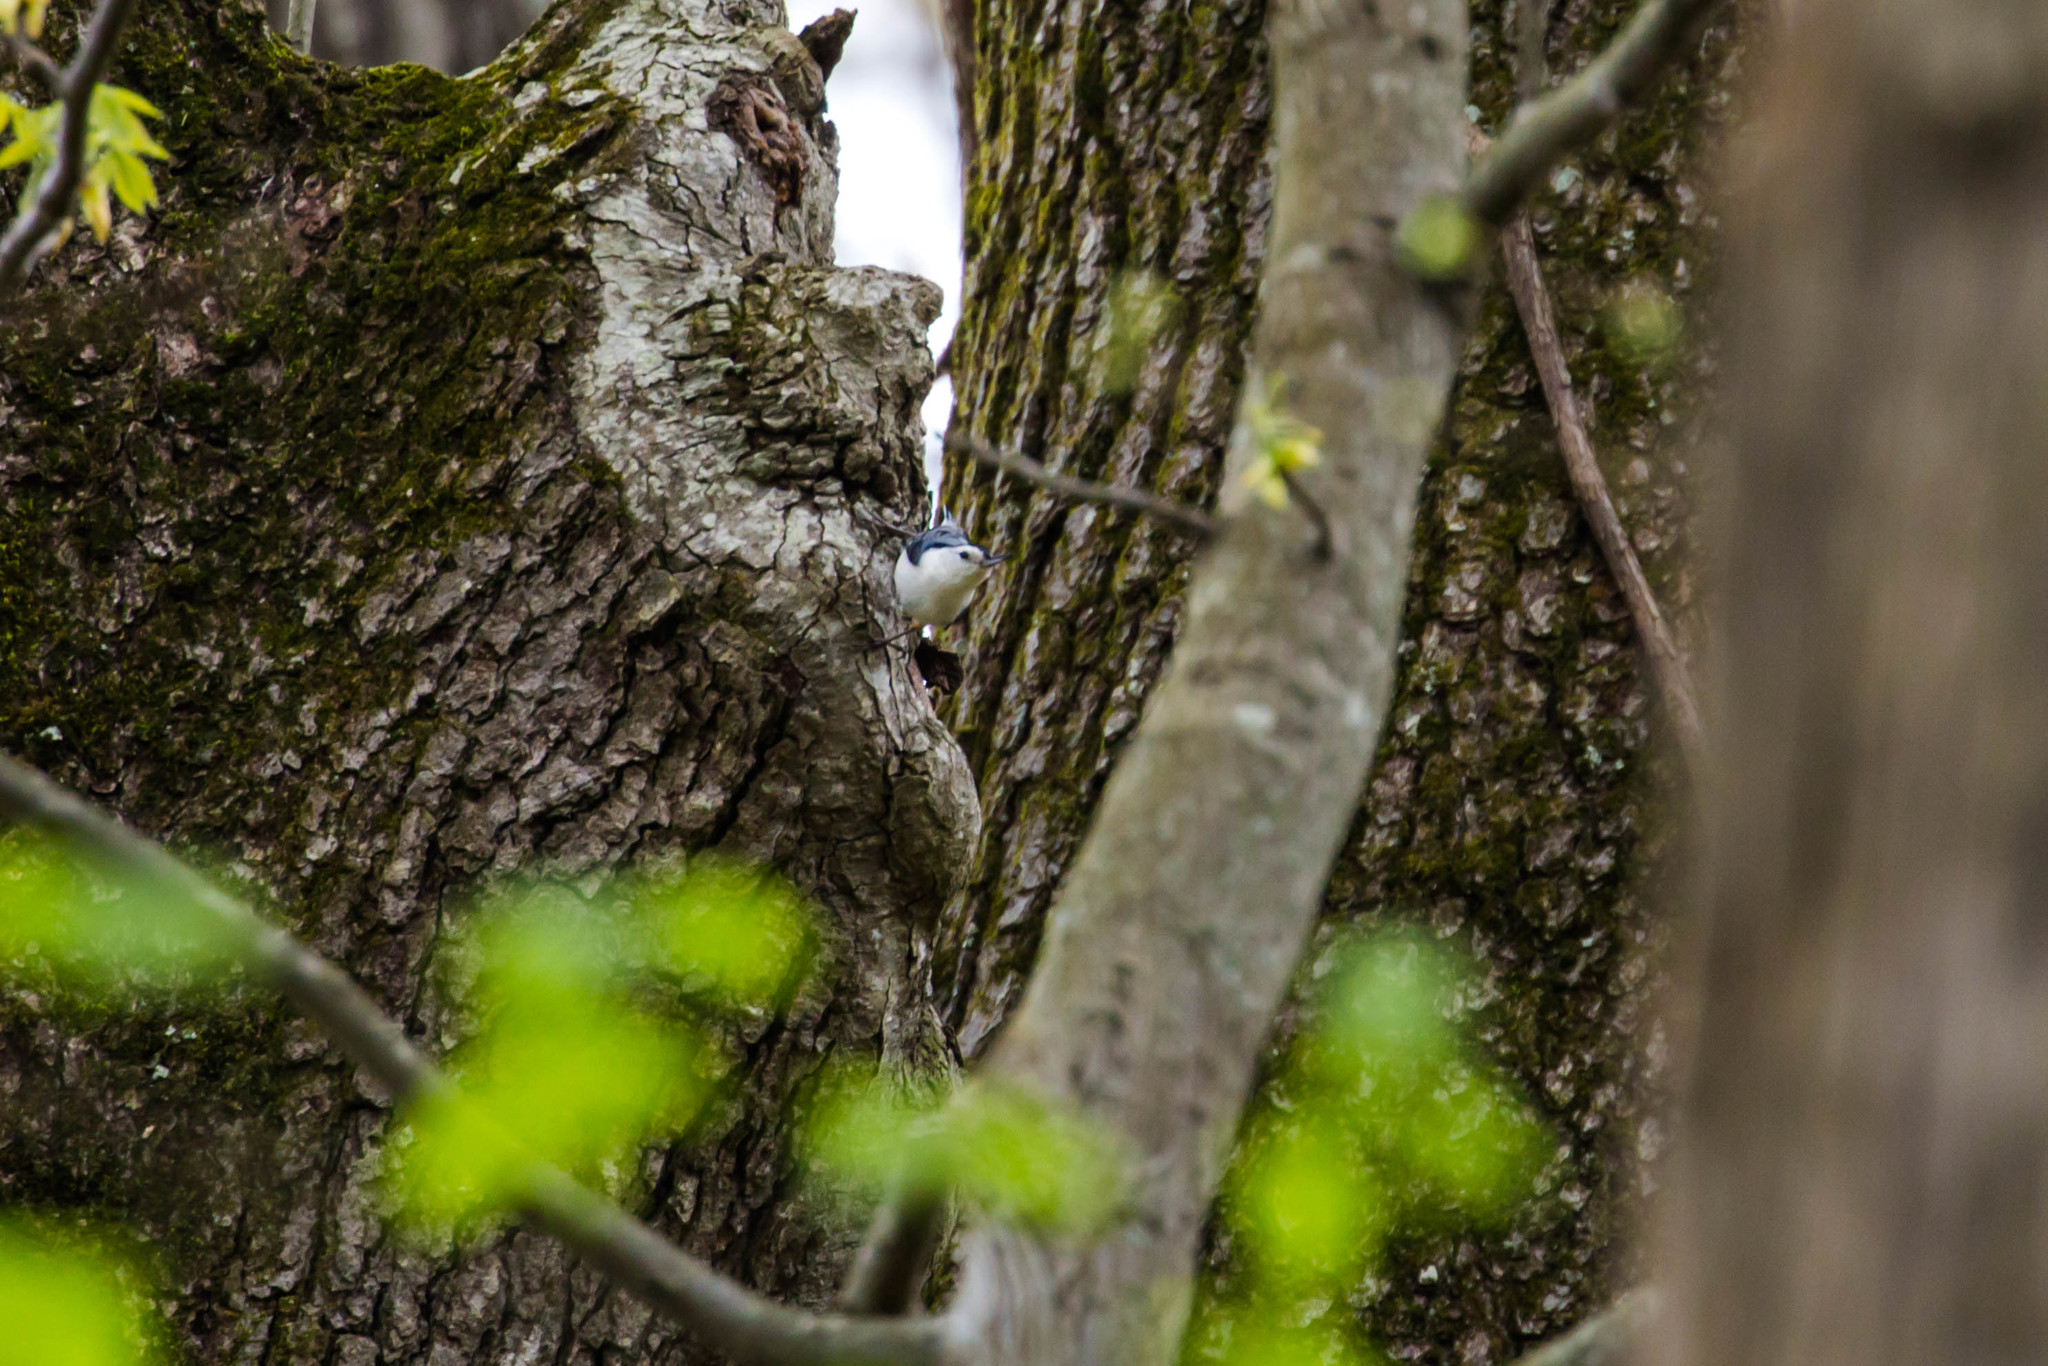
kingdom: Animalia
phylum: Chordata
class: Aves
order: Passeriformes
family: Sittidae
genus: Sitta
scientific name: Sitta carolinensis
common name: White-breasted nuthatch
